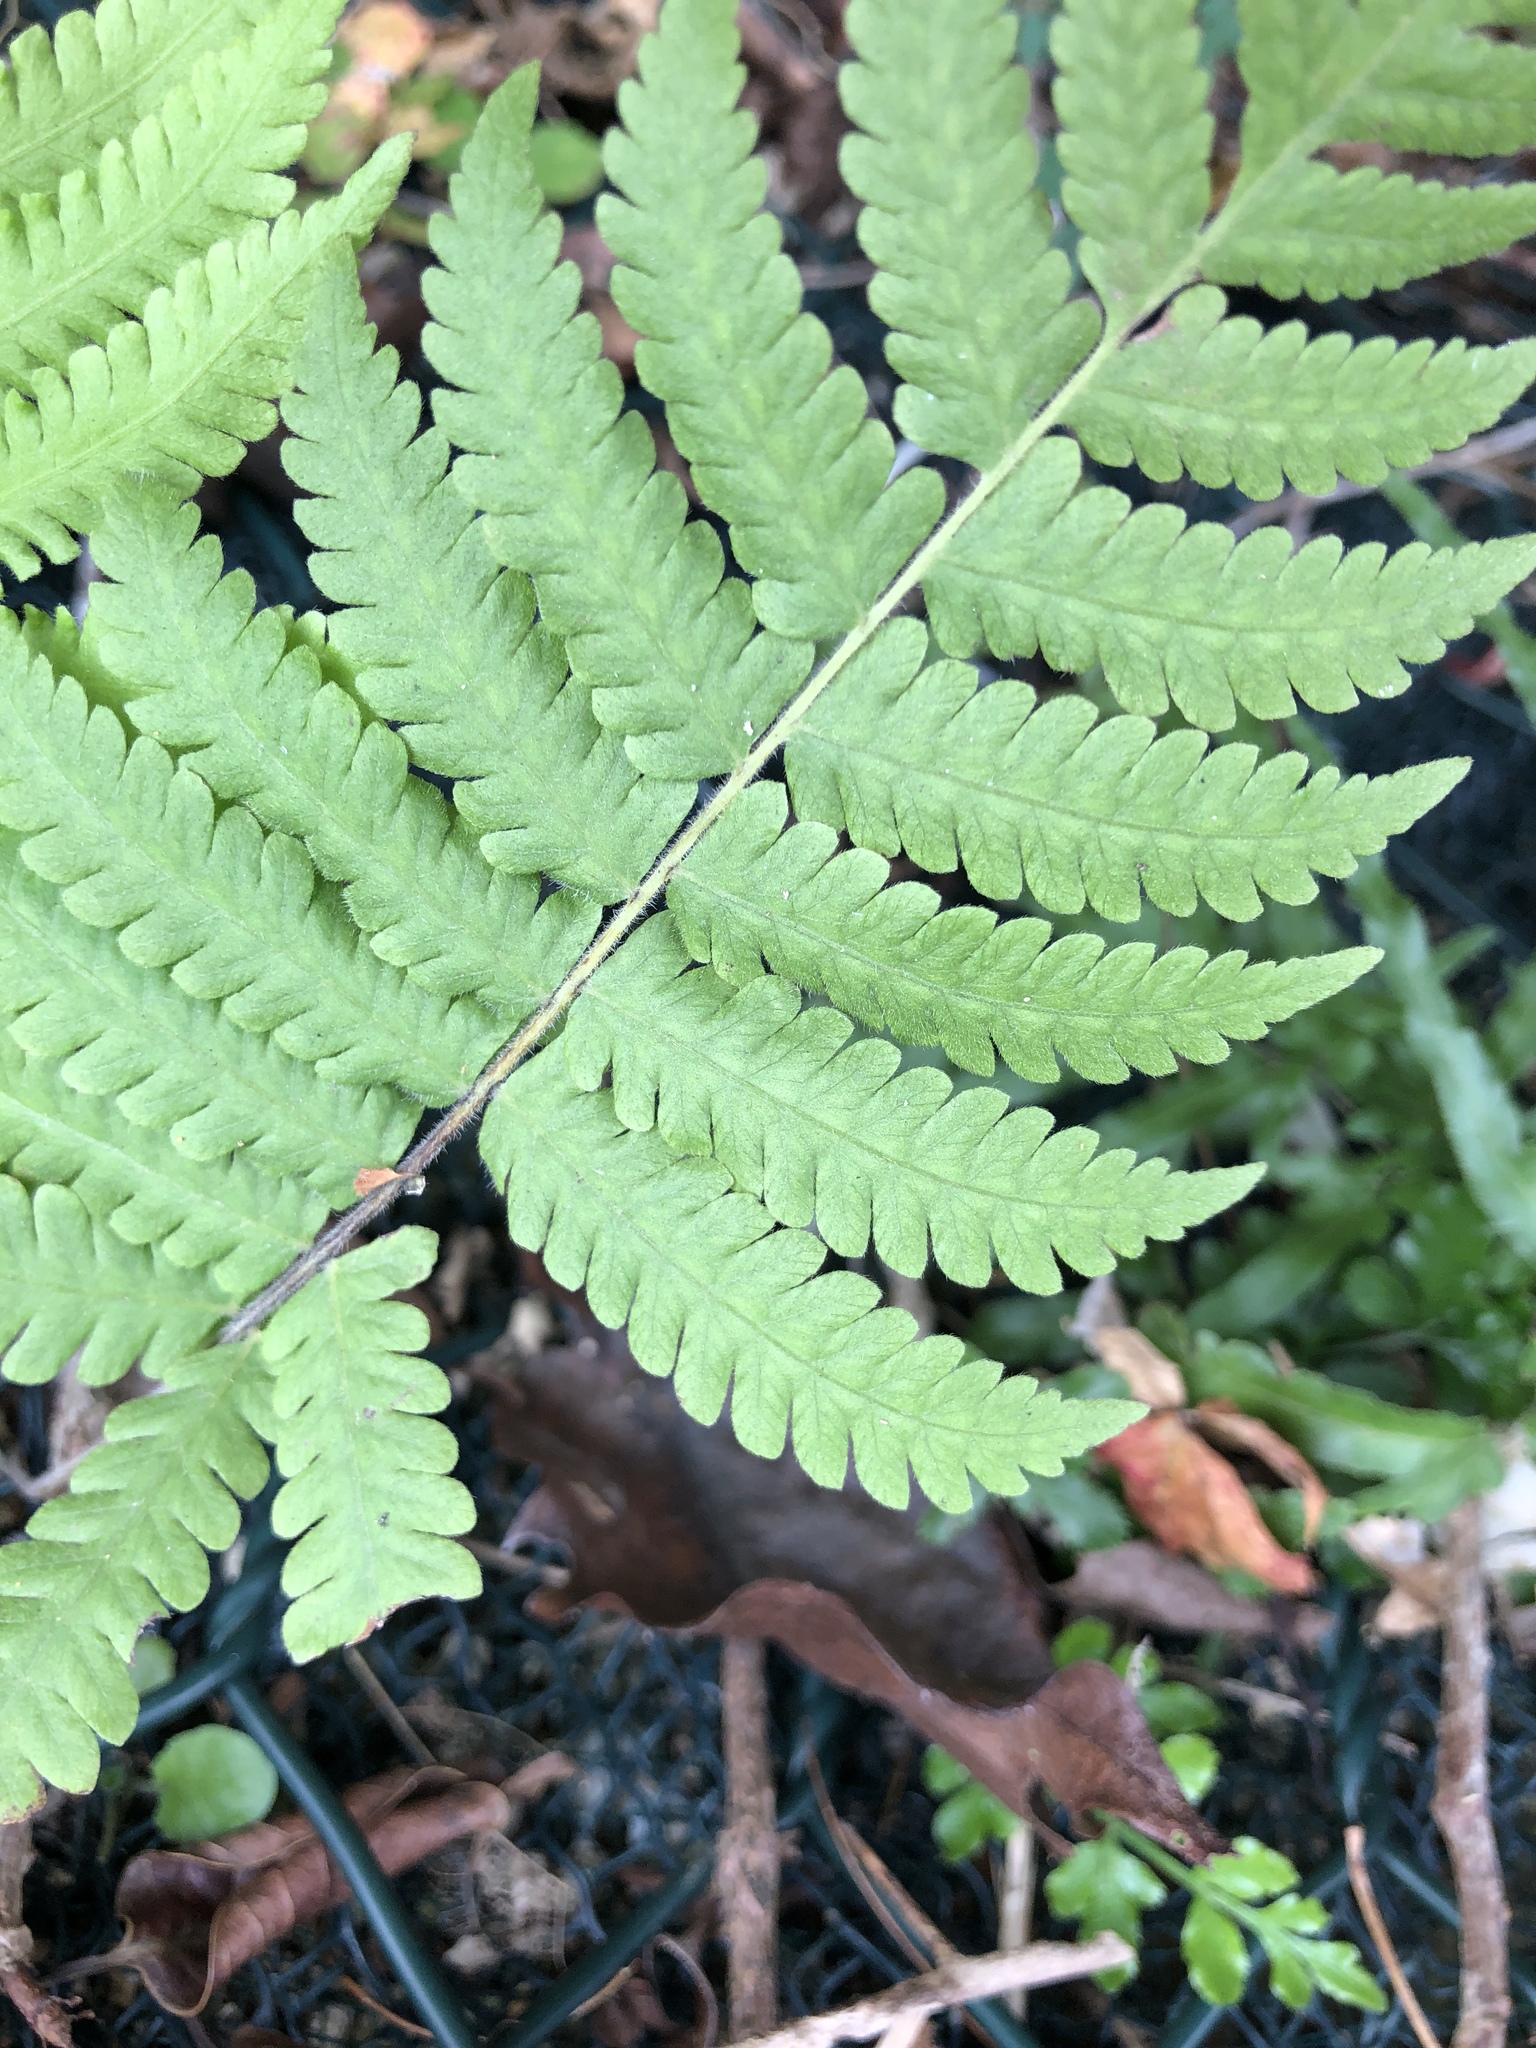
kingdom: Plantae
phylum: Tracheophyta
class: Polypodiopsida
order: Polypodiales
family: Thelypteridaceae
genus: Christella
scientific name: Christella parasitica
